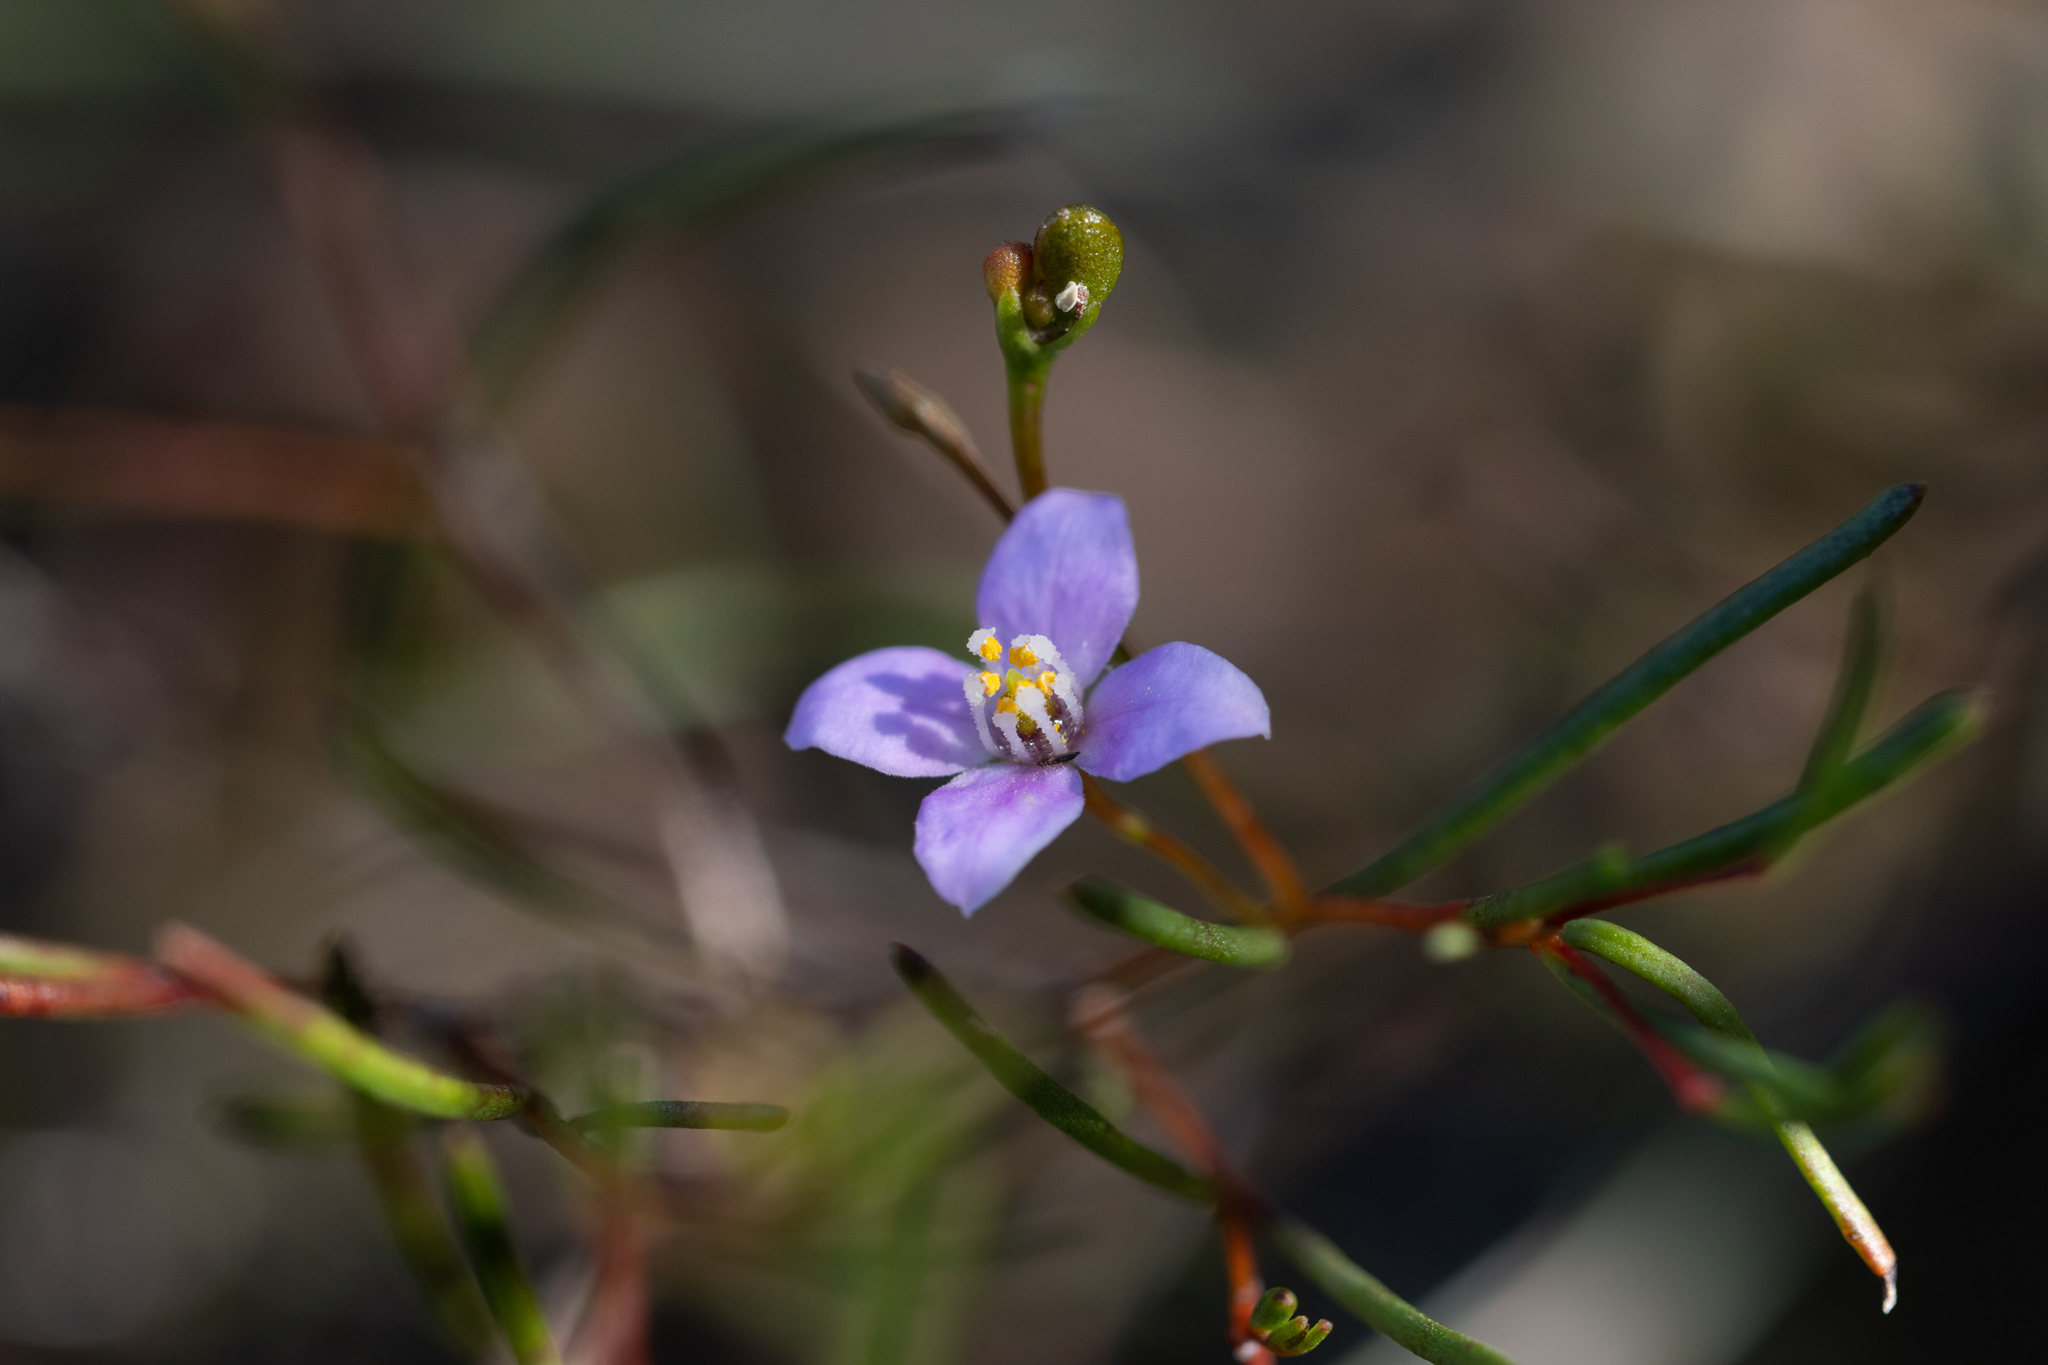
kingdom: Plantae
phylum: Tracheophyta
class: Magnoliopsida
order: Sapindales
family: Rutaceae
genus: Boronia
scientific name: Boronia filifolia
